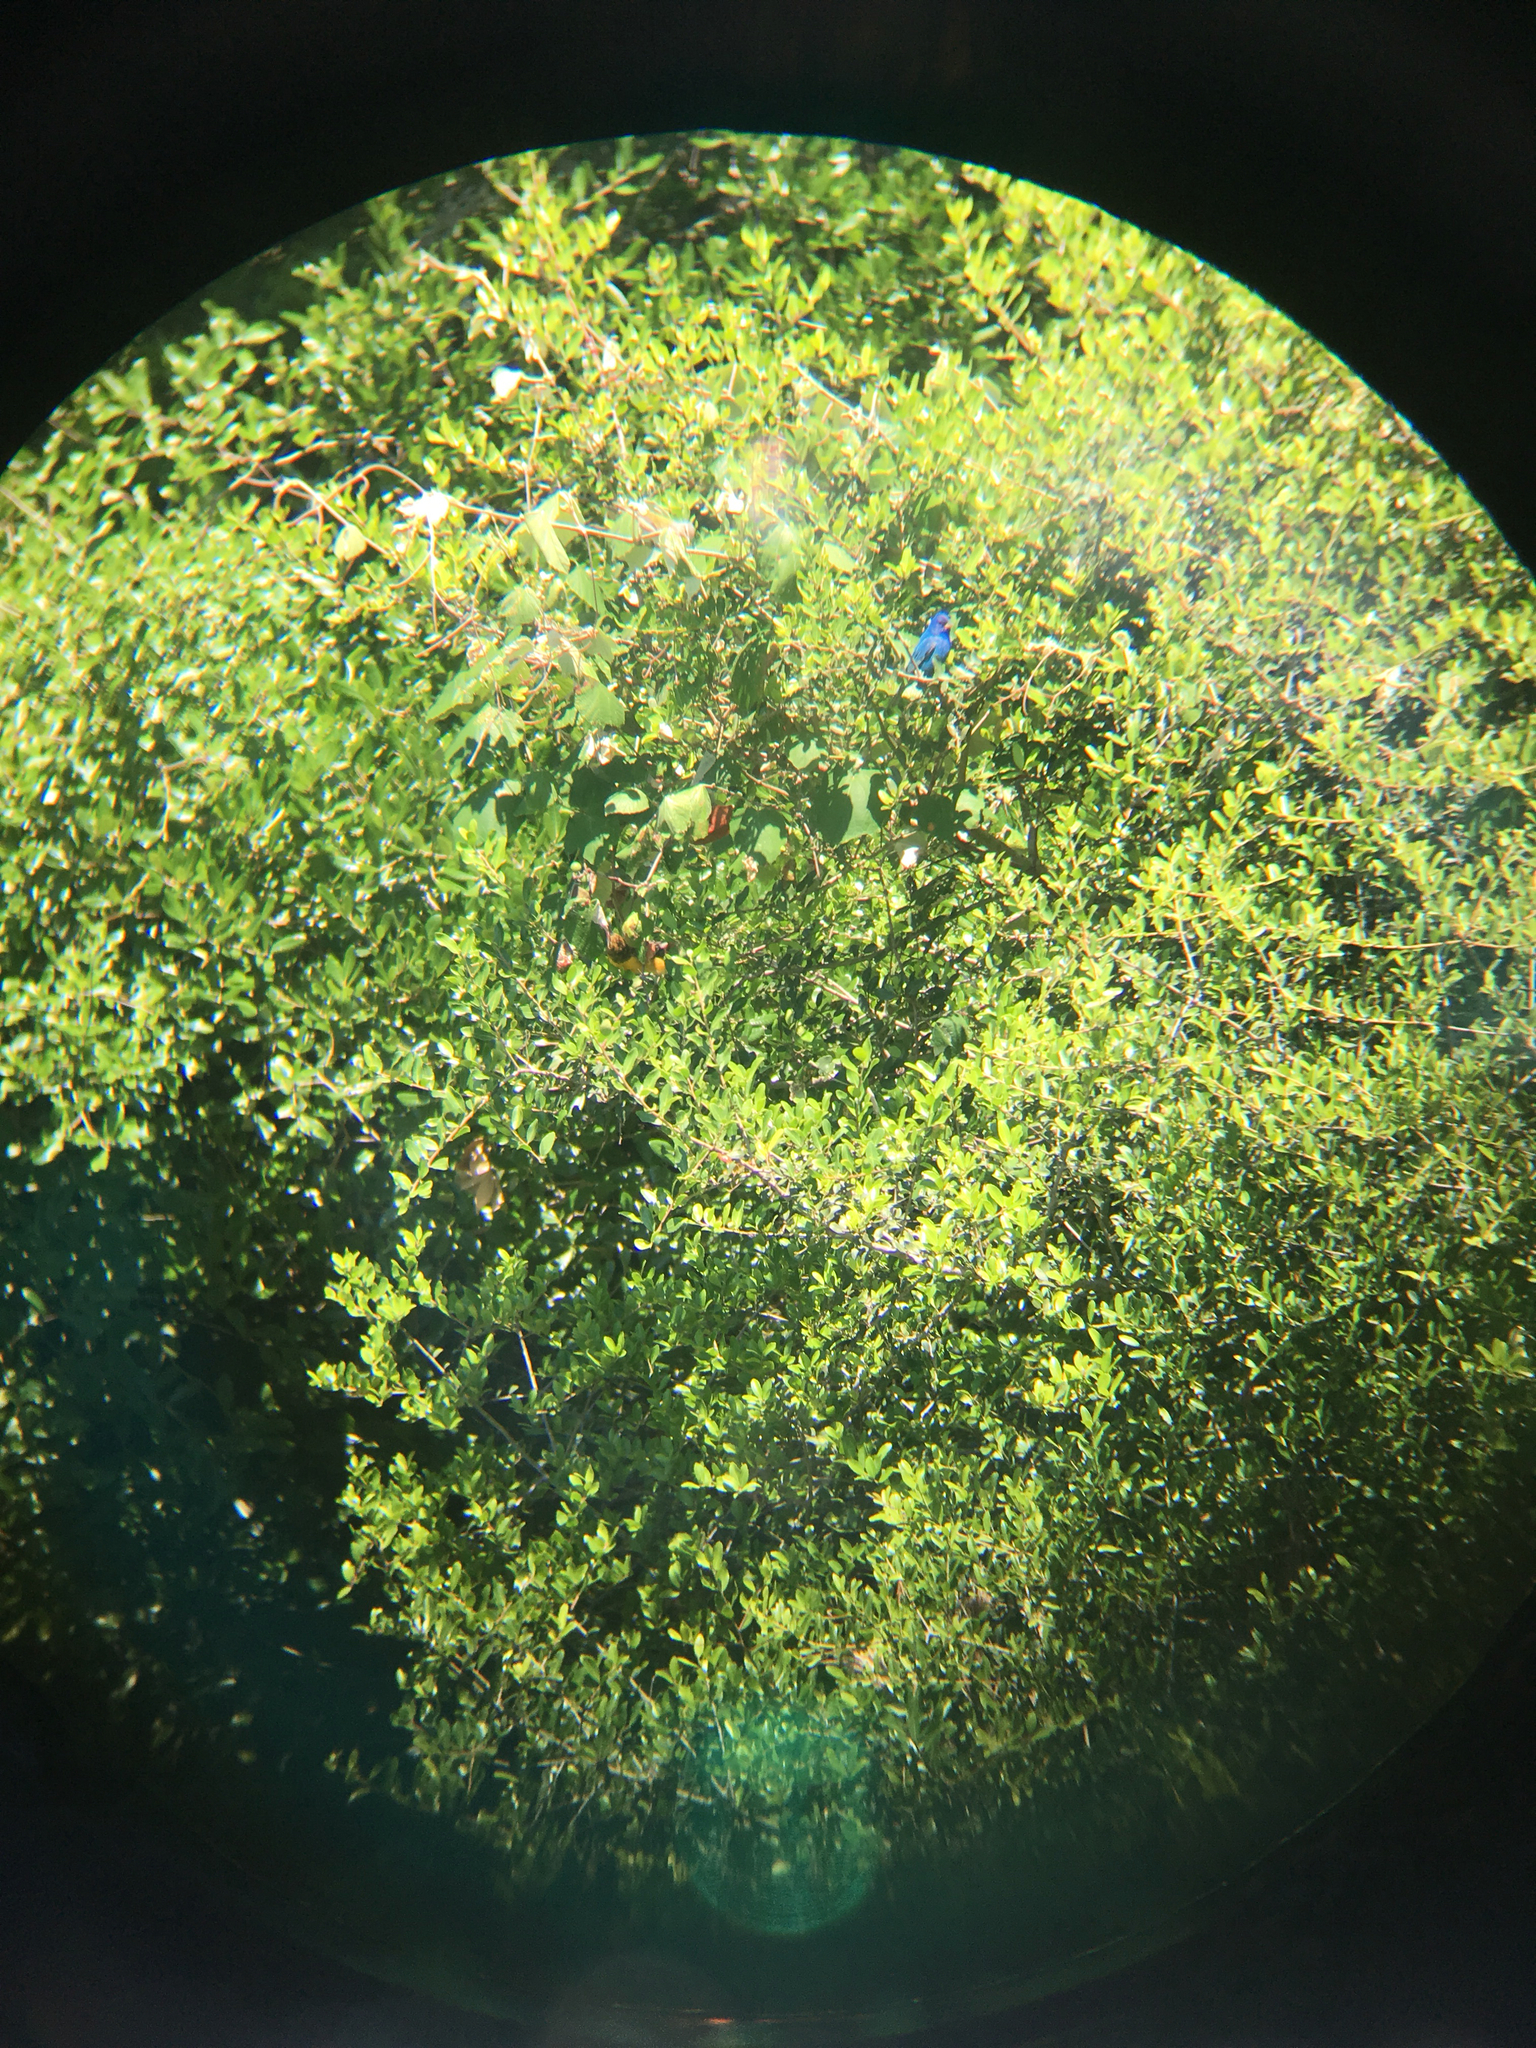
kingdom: Animalia
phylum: Chordata
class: Aves
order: Passeriformes
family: Cardinalidae
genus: Passerina
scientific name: Passerina cyanea
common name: Indigo bunting
